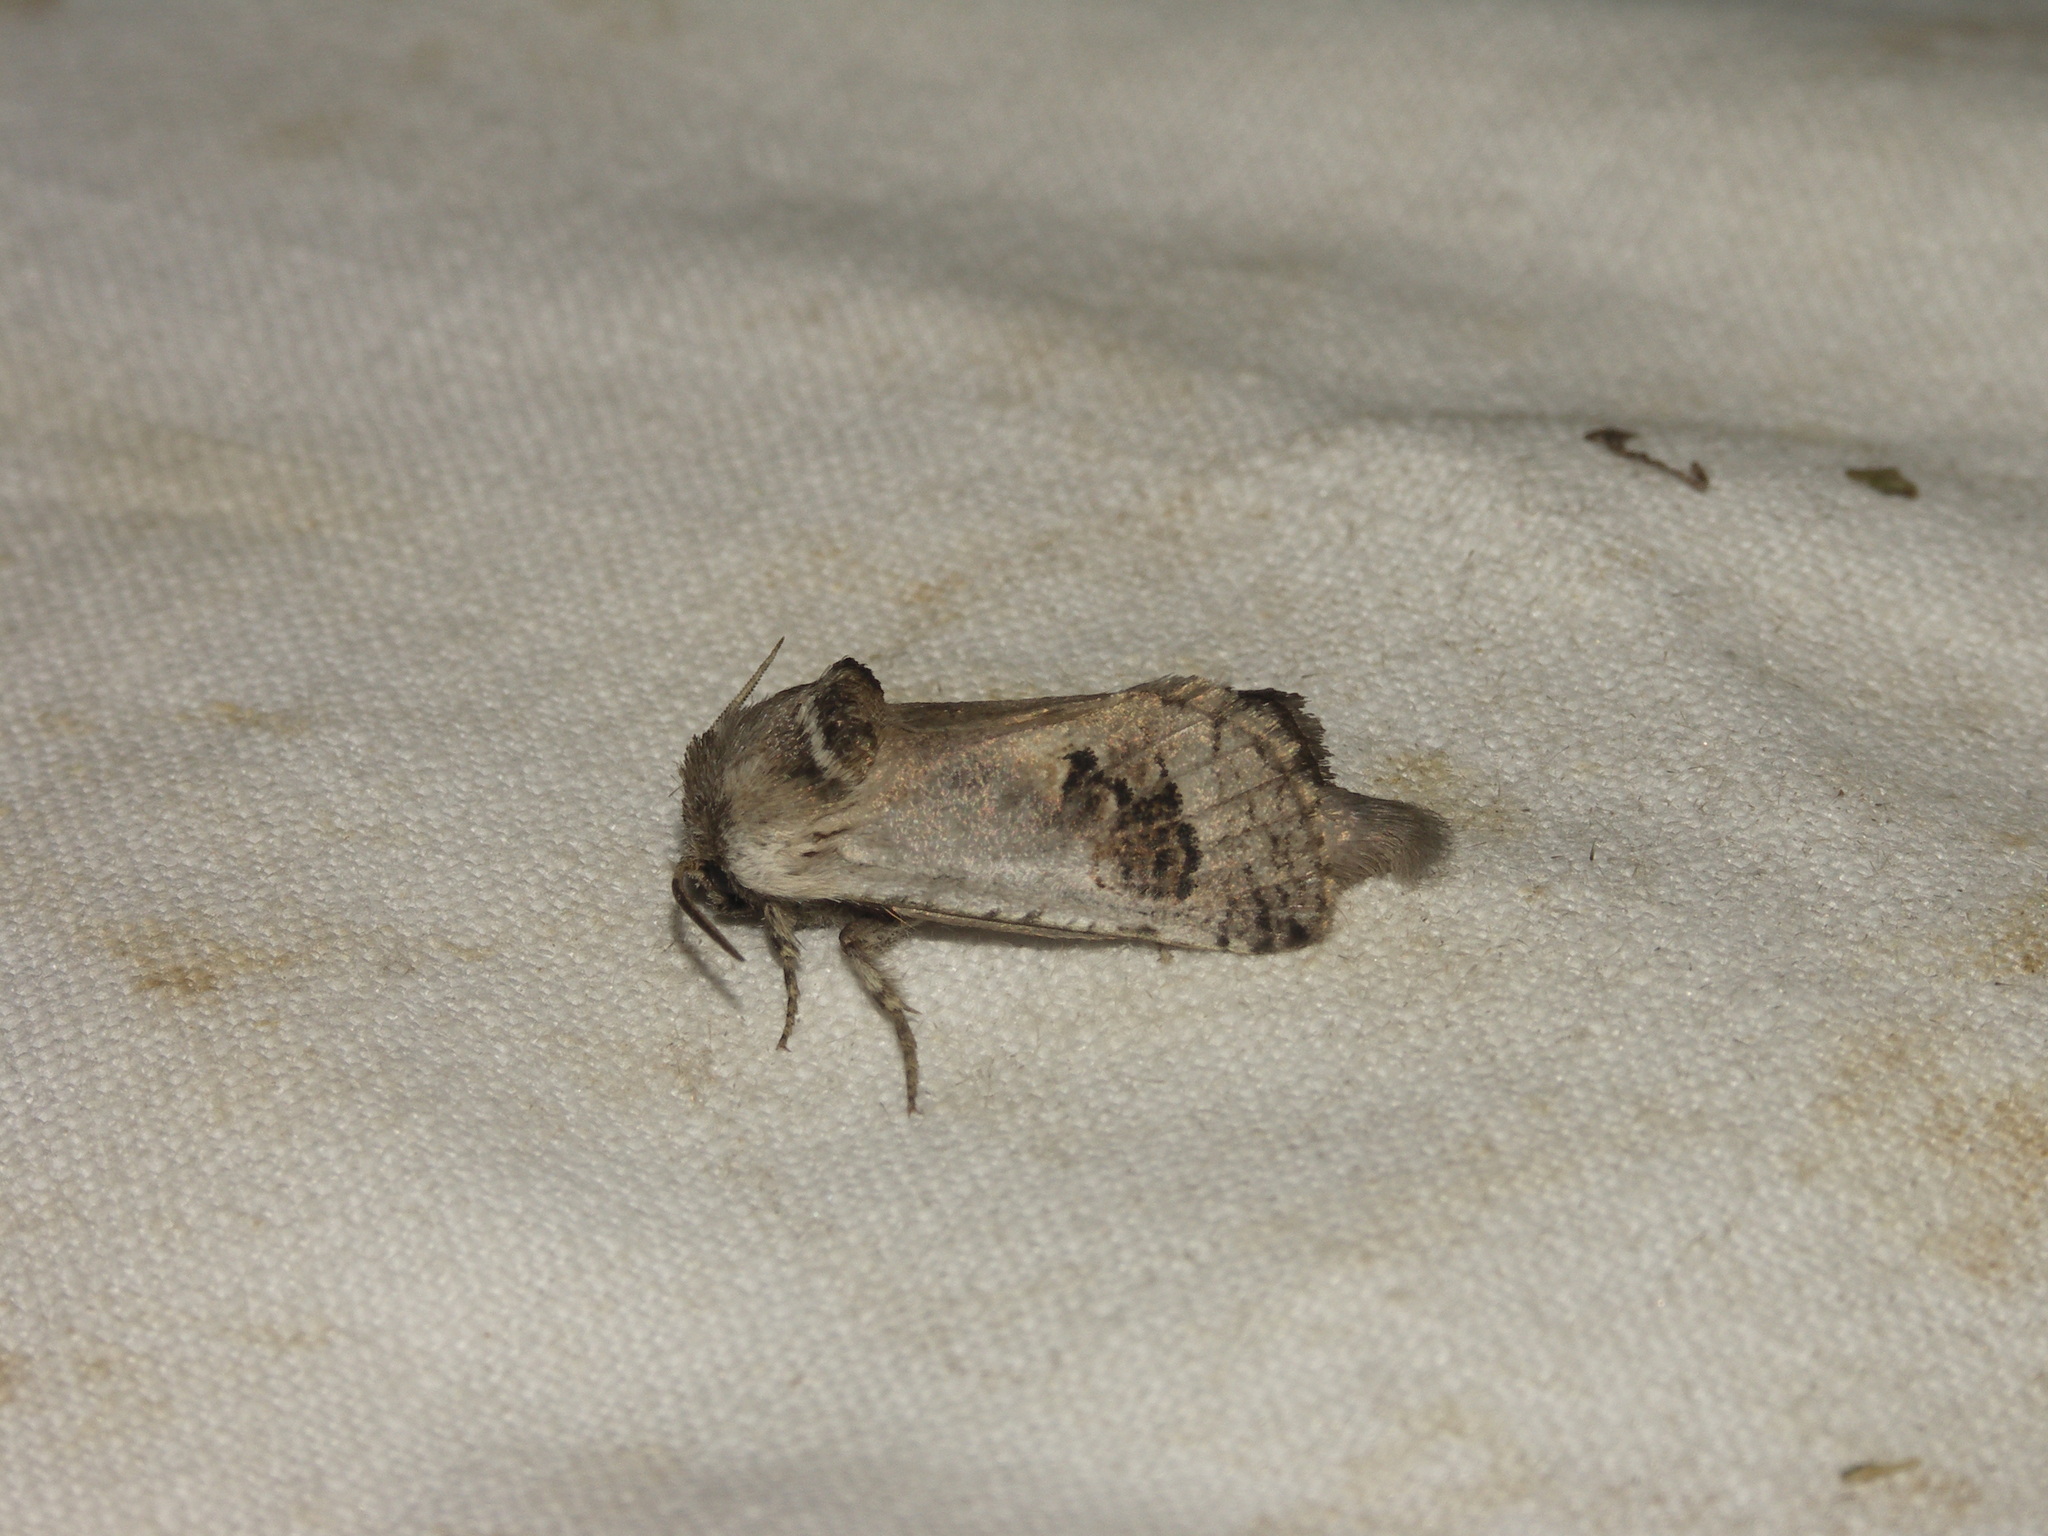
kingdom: Animalia
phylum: Arthropoda
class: Insecta
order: Lepidoptera
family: Cossidae
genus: Parahypopta
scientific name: Parahypopta caestrum
